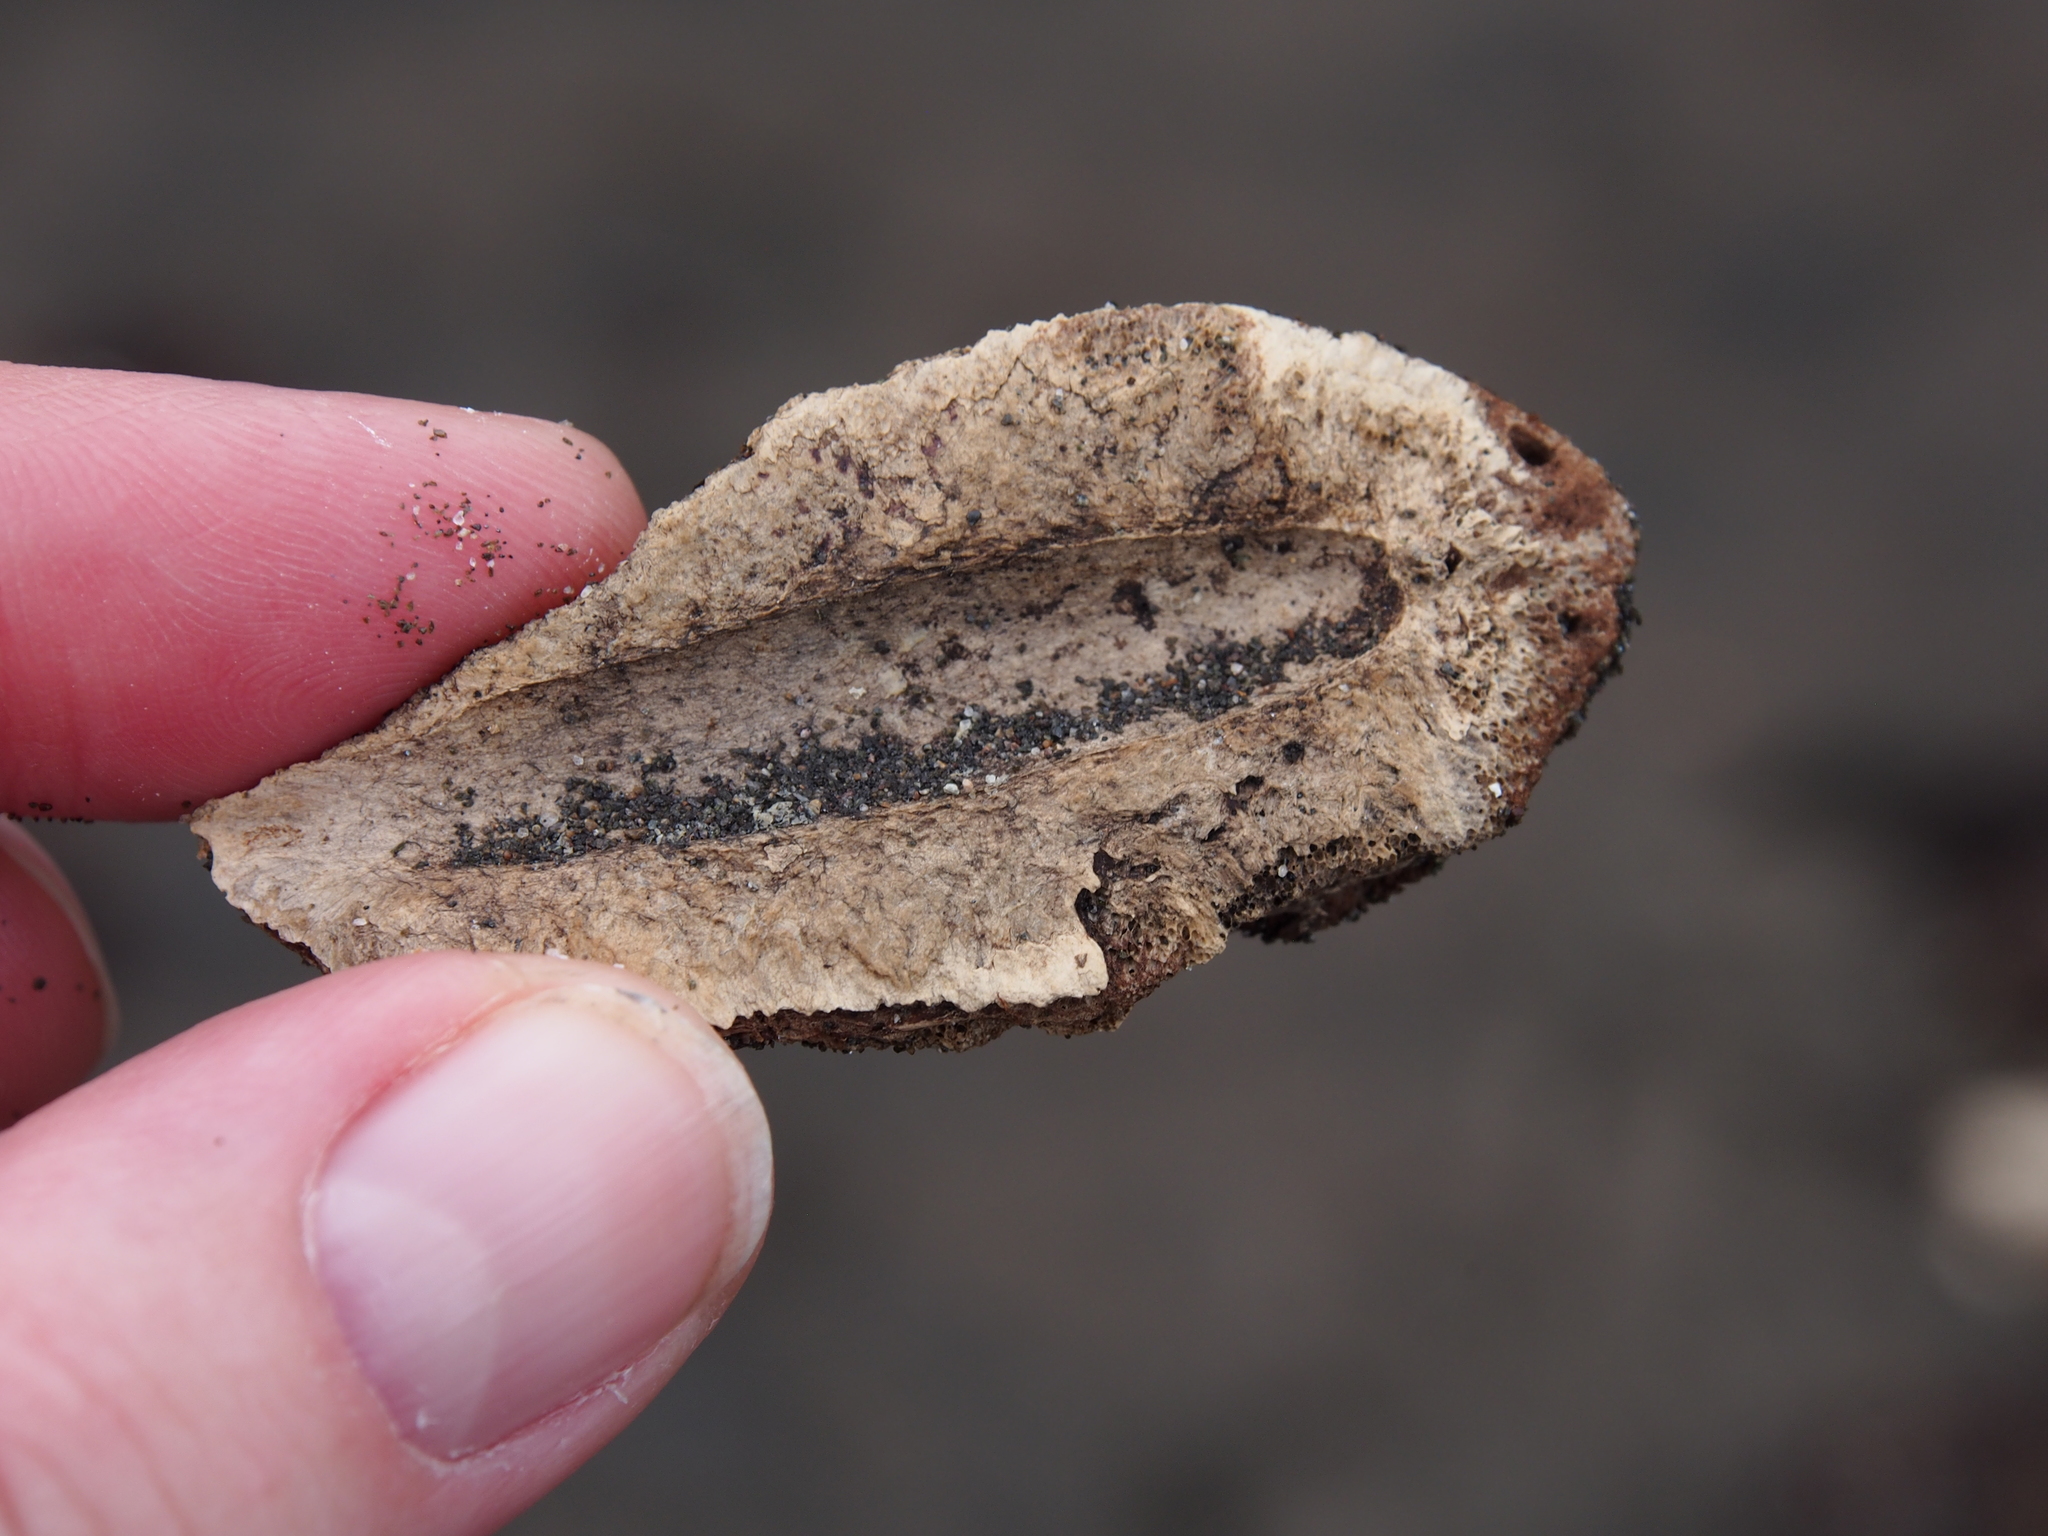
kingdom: Plantae
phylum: Tracheophyta
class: Magnoliopsida
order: Myrtales
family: Combretaceae
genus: Terminalia
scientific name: Terminalia catappa
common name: Tropical almond
